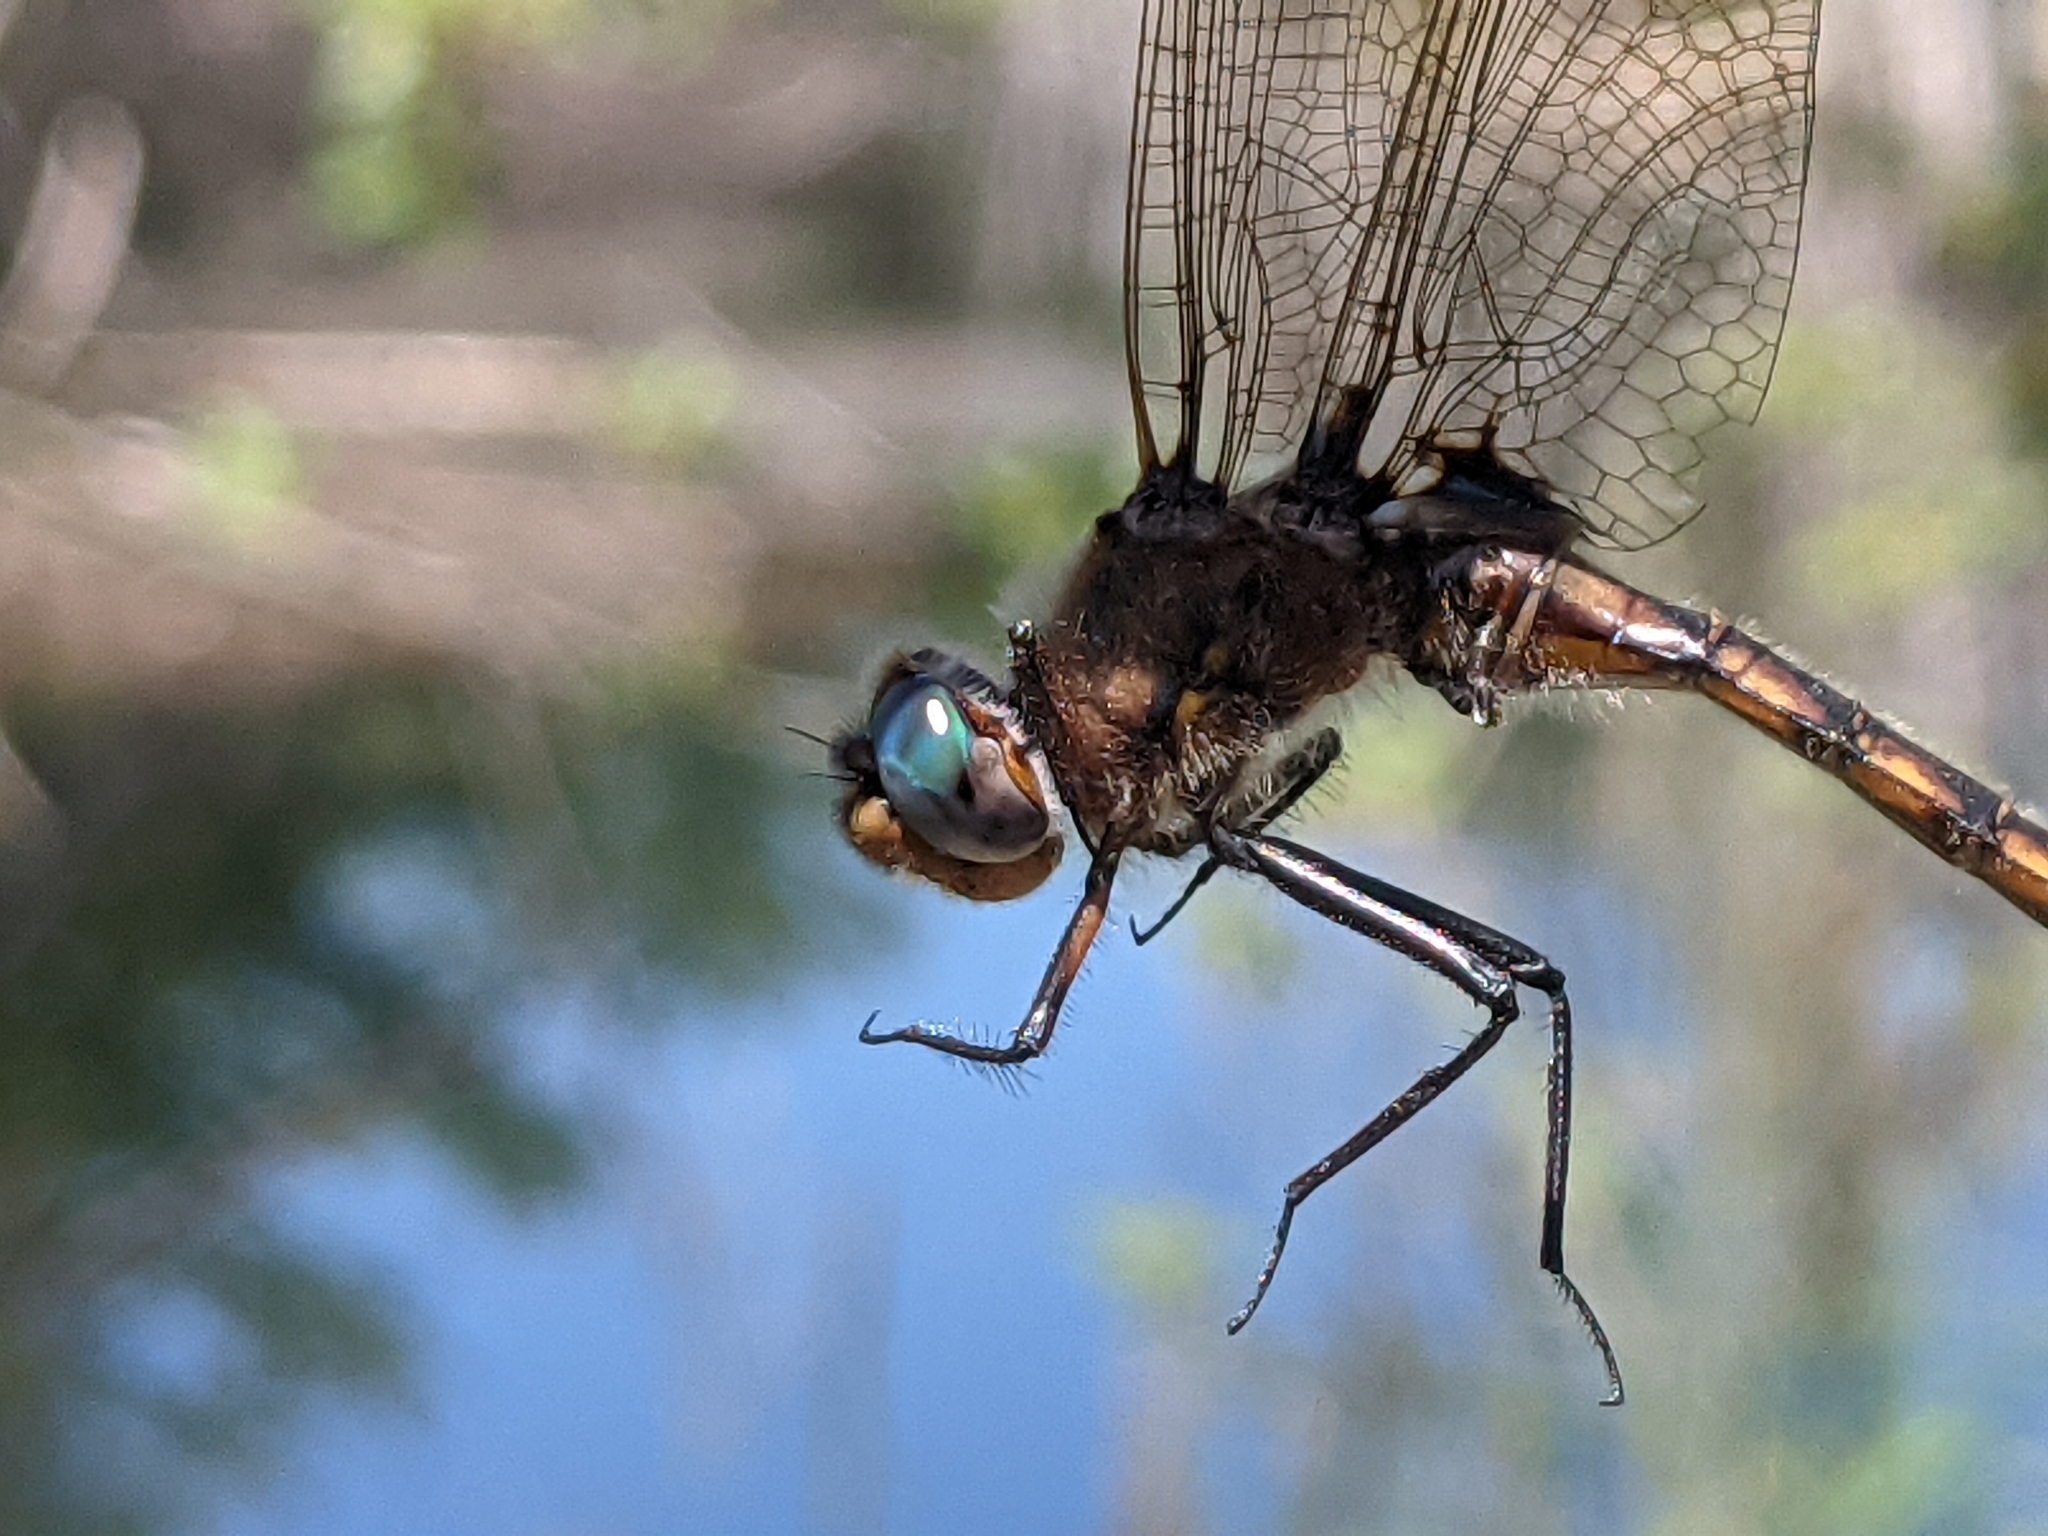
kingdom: Animalia
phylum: Arthropoda
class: Insecta
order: Odonata
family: Corduliidae
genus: Epitheca
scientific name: Epitheca canis
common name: Beaverpond baskettail
